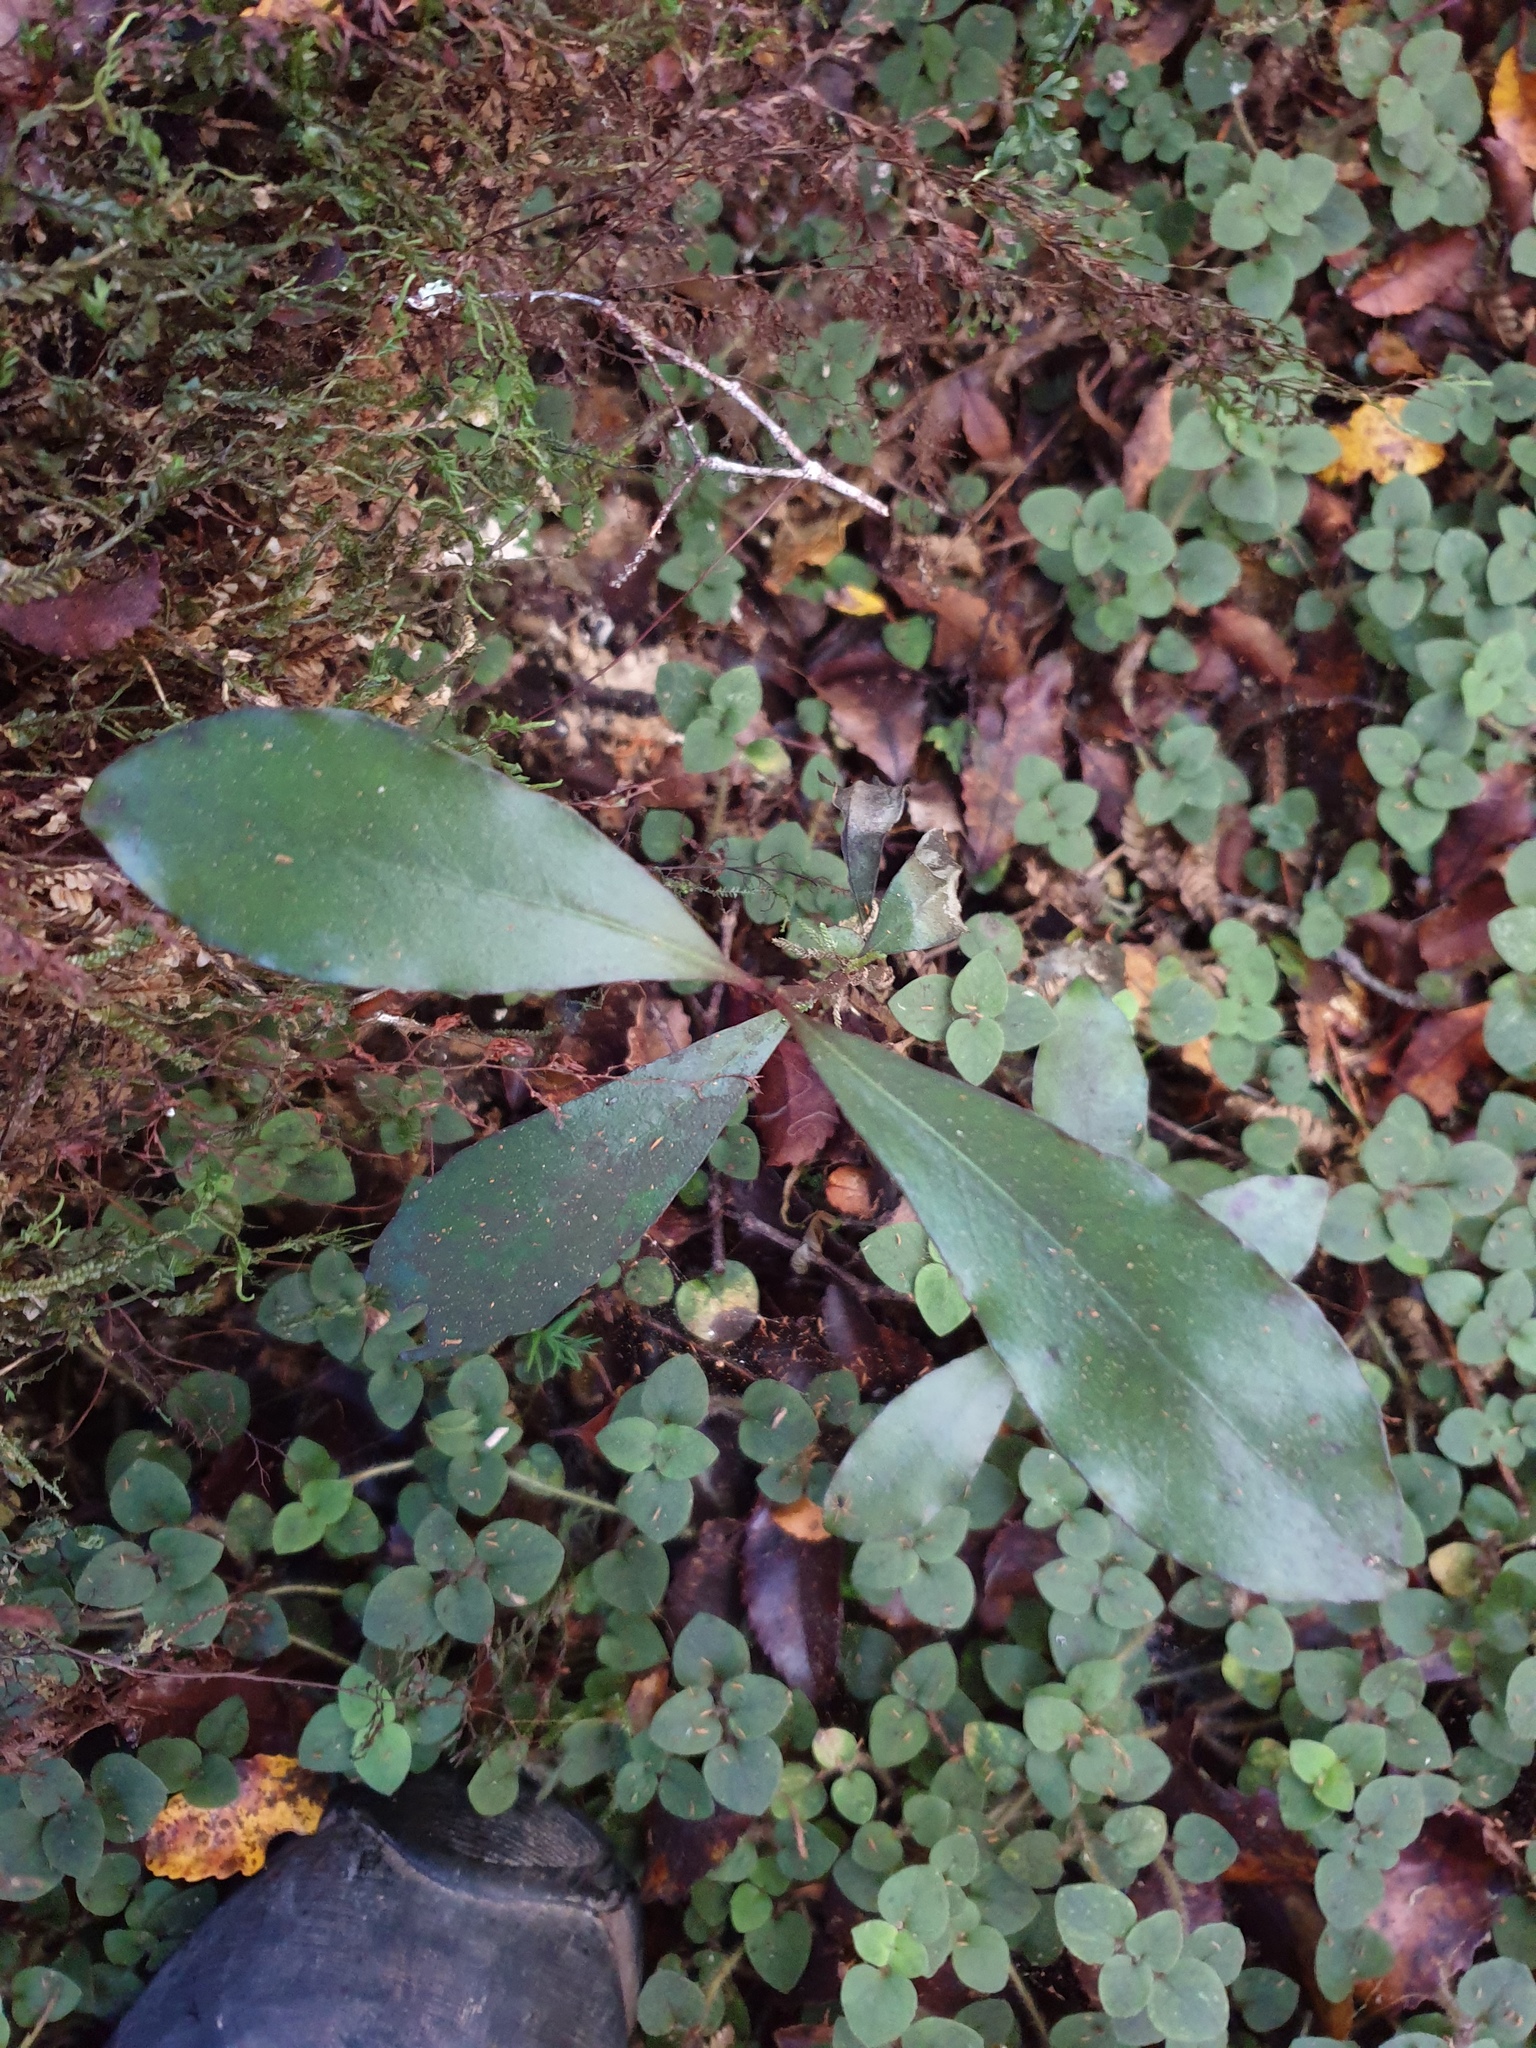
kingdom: Plantae
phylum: Tracheophyta
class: Magnoliopsida
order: Canellales
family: Winteraceae
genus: Pseudowintera
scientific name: Pseudowintera colorata
